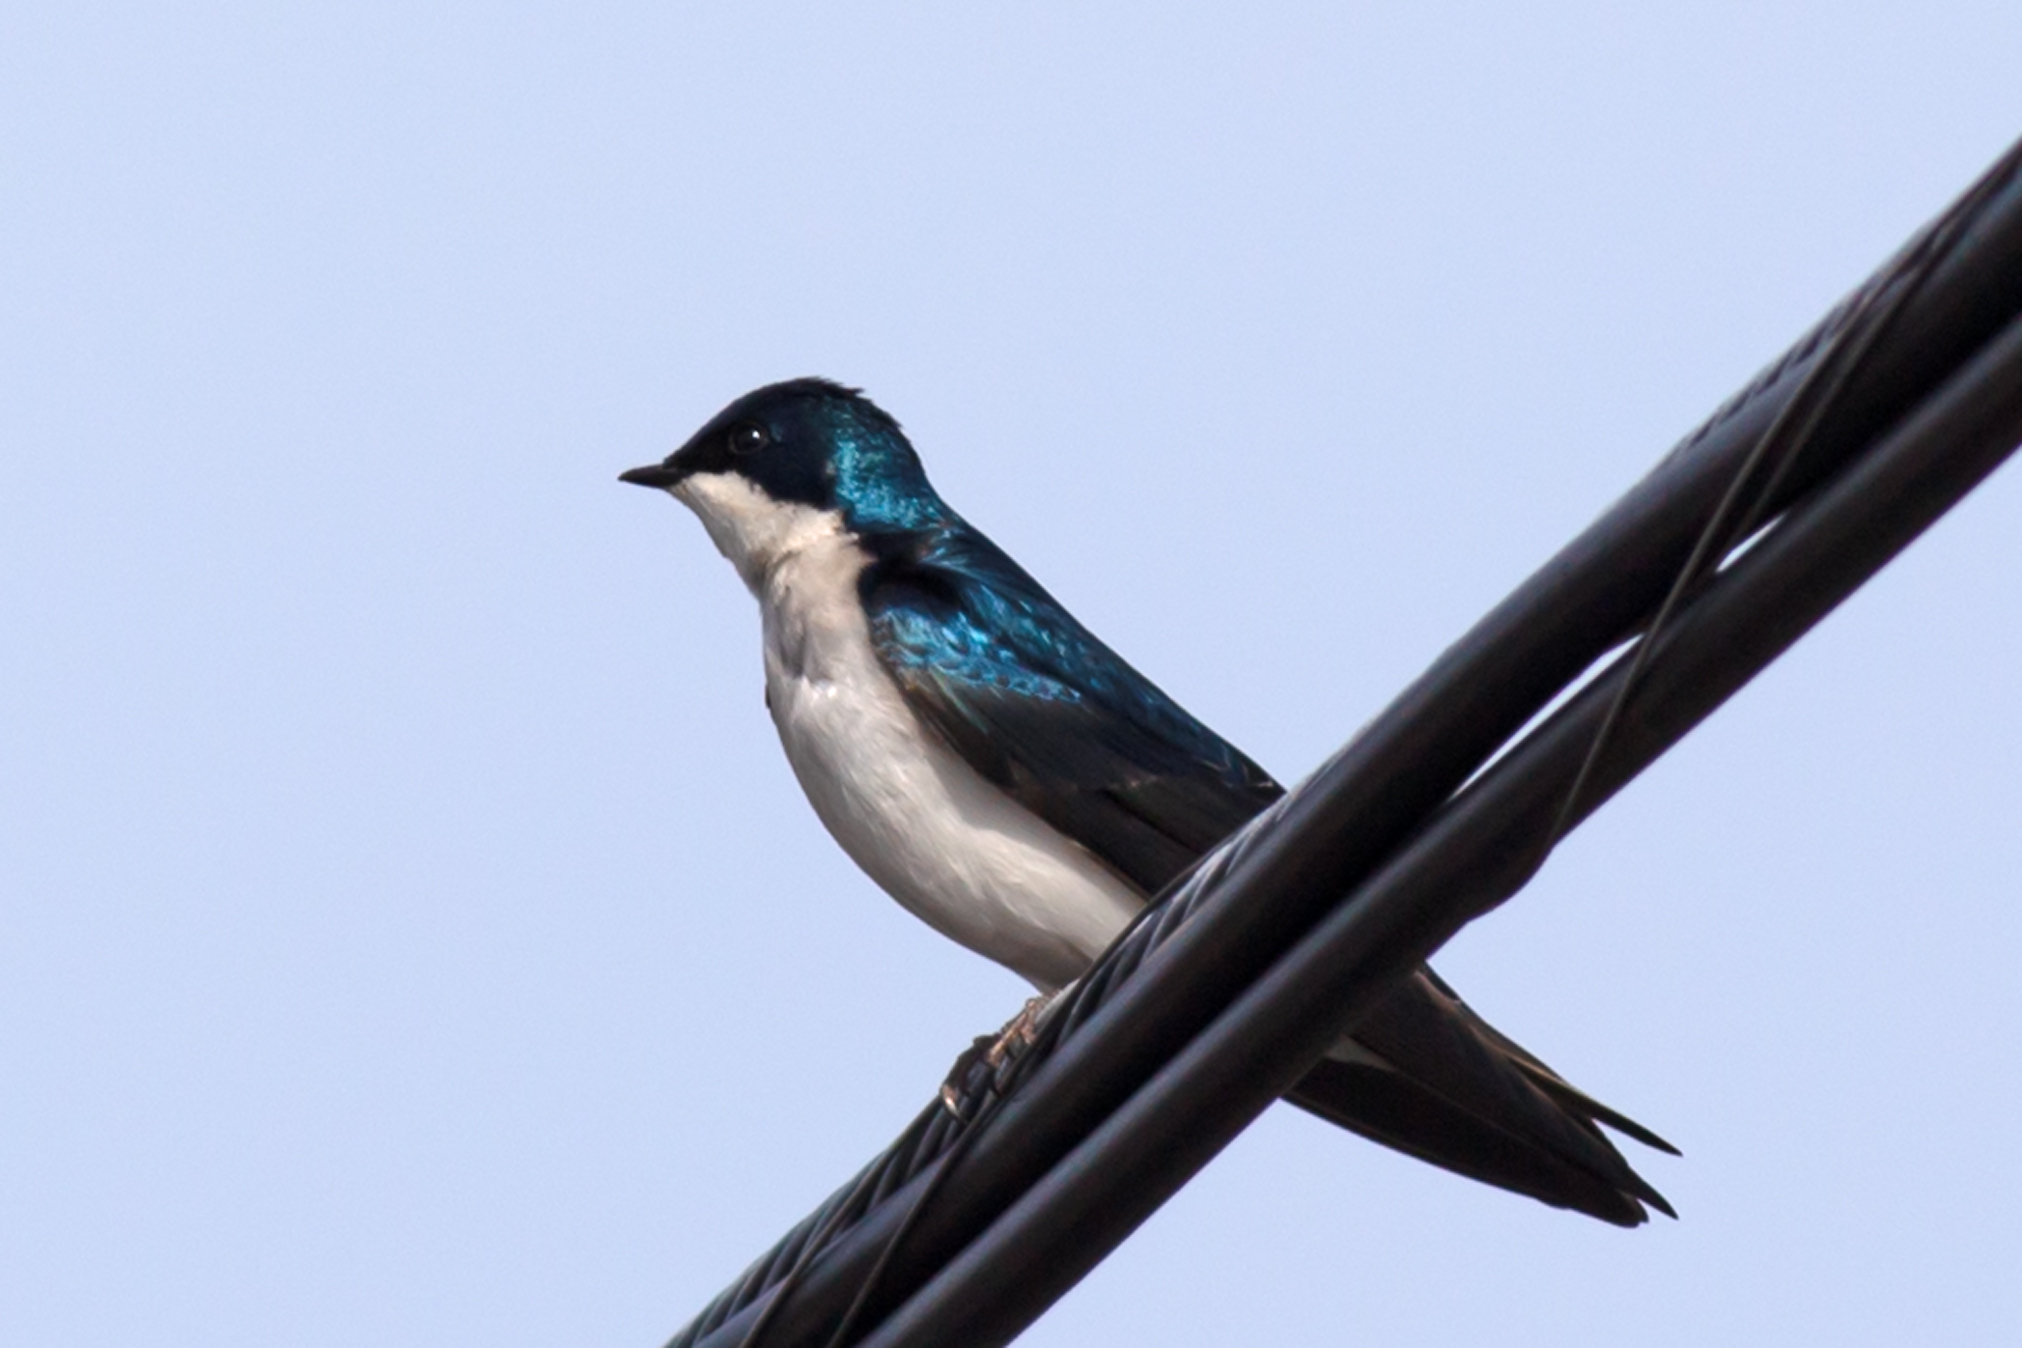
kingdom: Animalia
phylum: Chordata
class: Aves
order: Passeriformes
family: Hirundinidae
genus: Tachycineta
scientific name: Tachycineta bicolor
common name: Tree swallow
